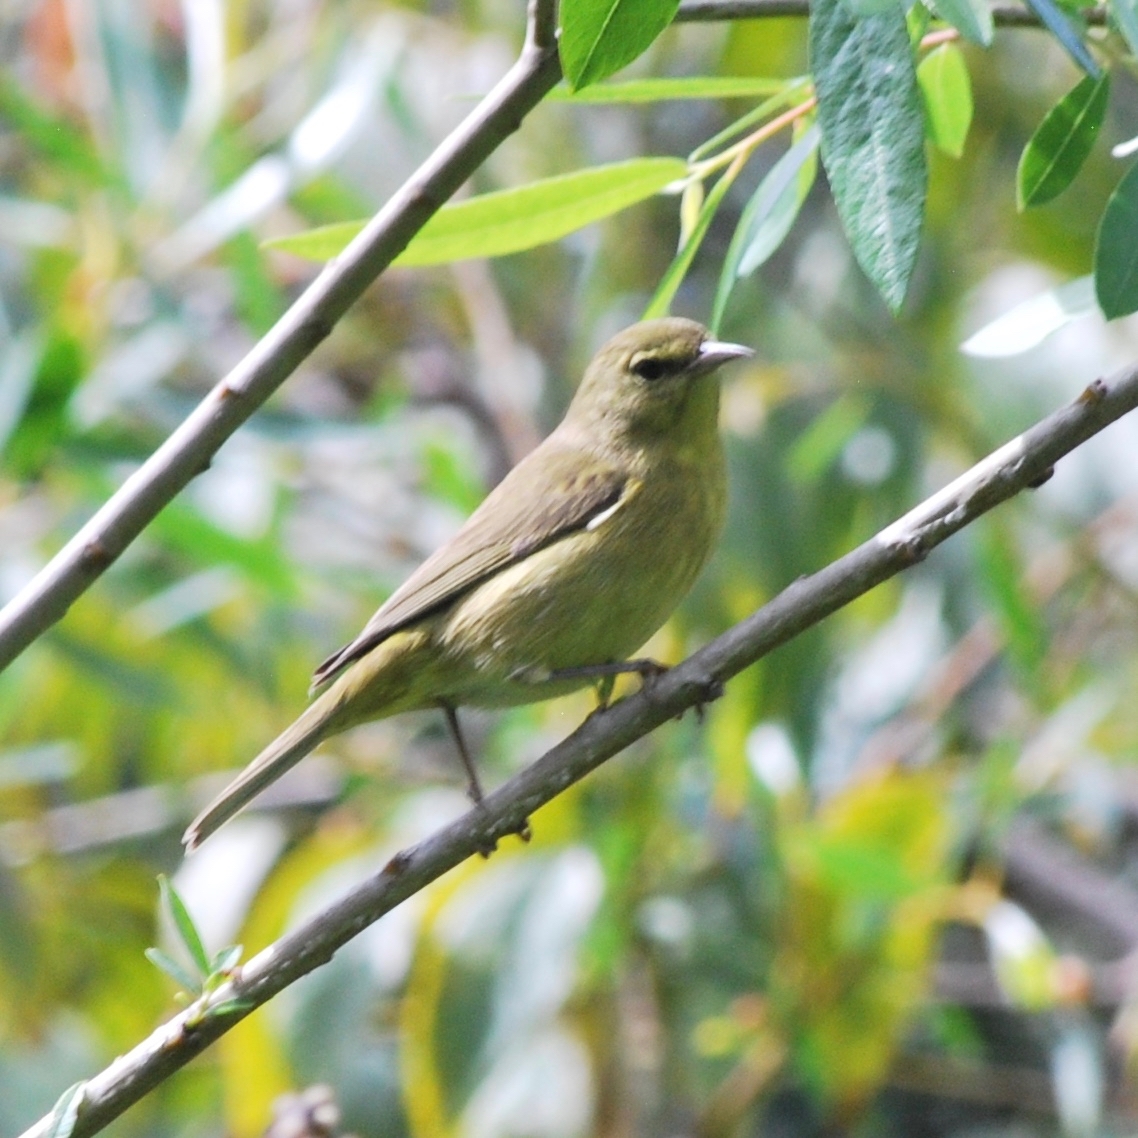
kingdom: Animalia
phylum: Chordata
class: Aves
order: Passeriformes
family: Parulidae
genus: Leiothlypis
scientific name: Leiothlypis celata
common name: Orange-crowned warbler
